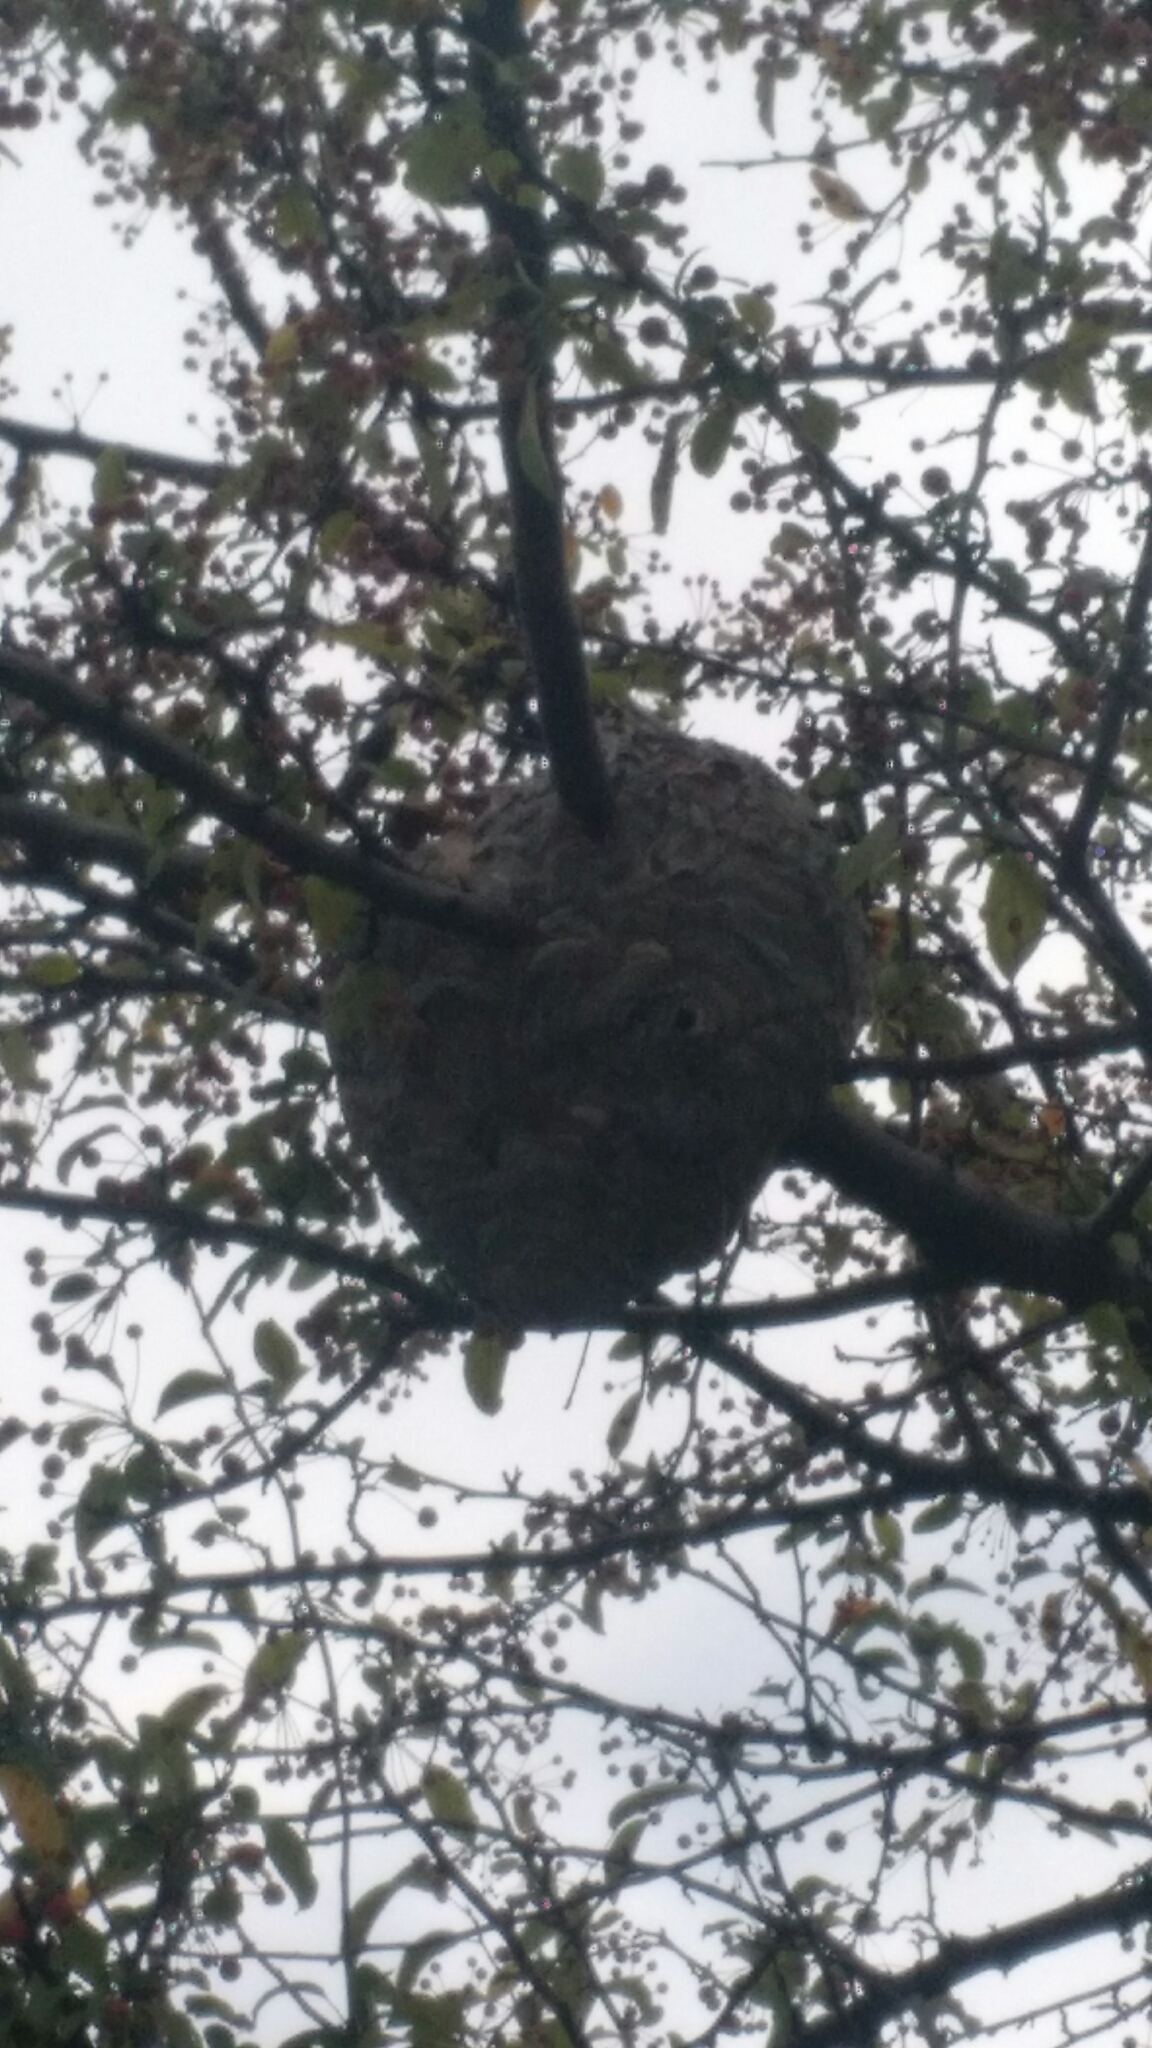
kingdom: Animalia
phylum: Arthropoda
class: Insecta
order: Hymenoptera
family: Vespidae
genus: Dolichovespula
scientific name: Dolichovespula maculata
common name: Bald-faced hornet
